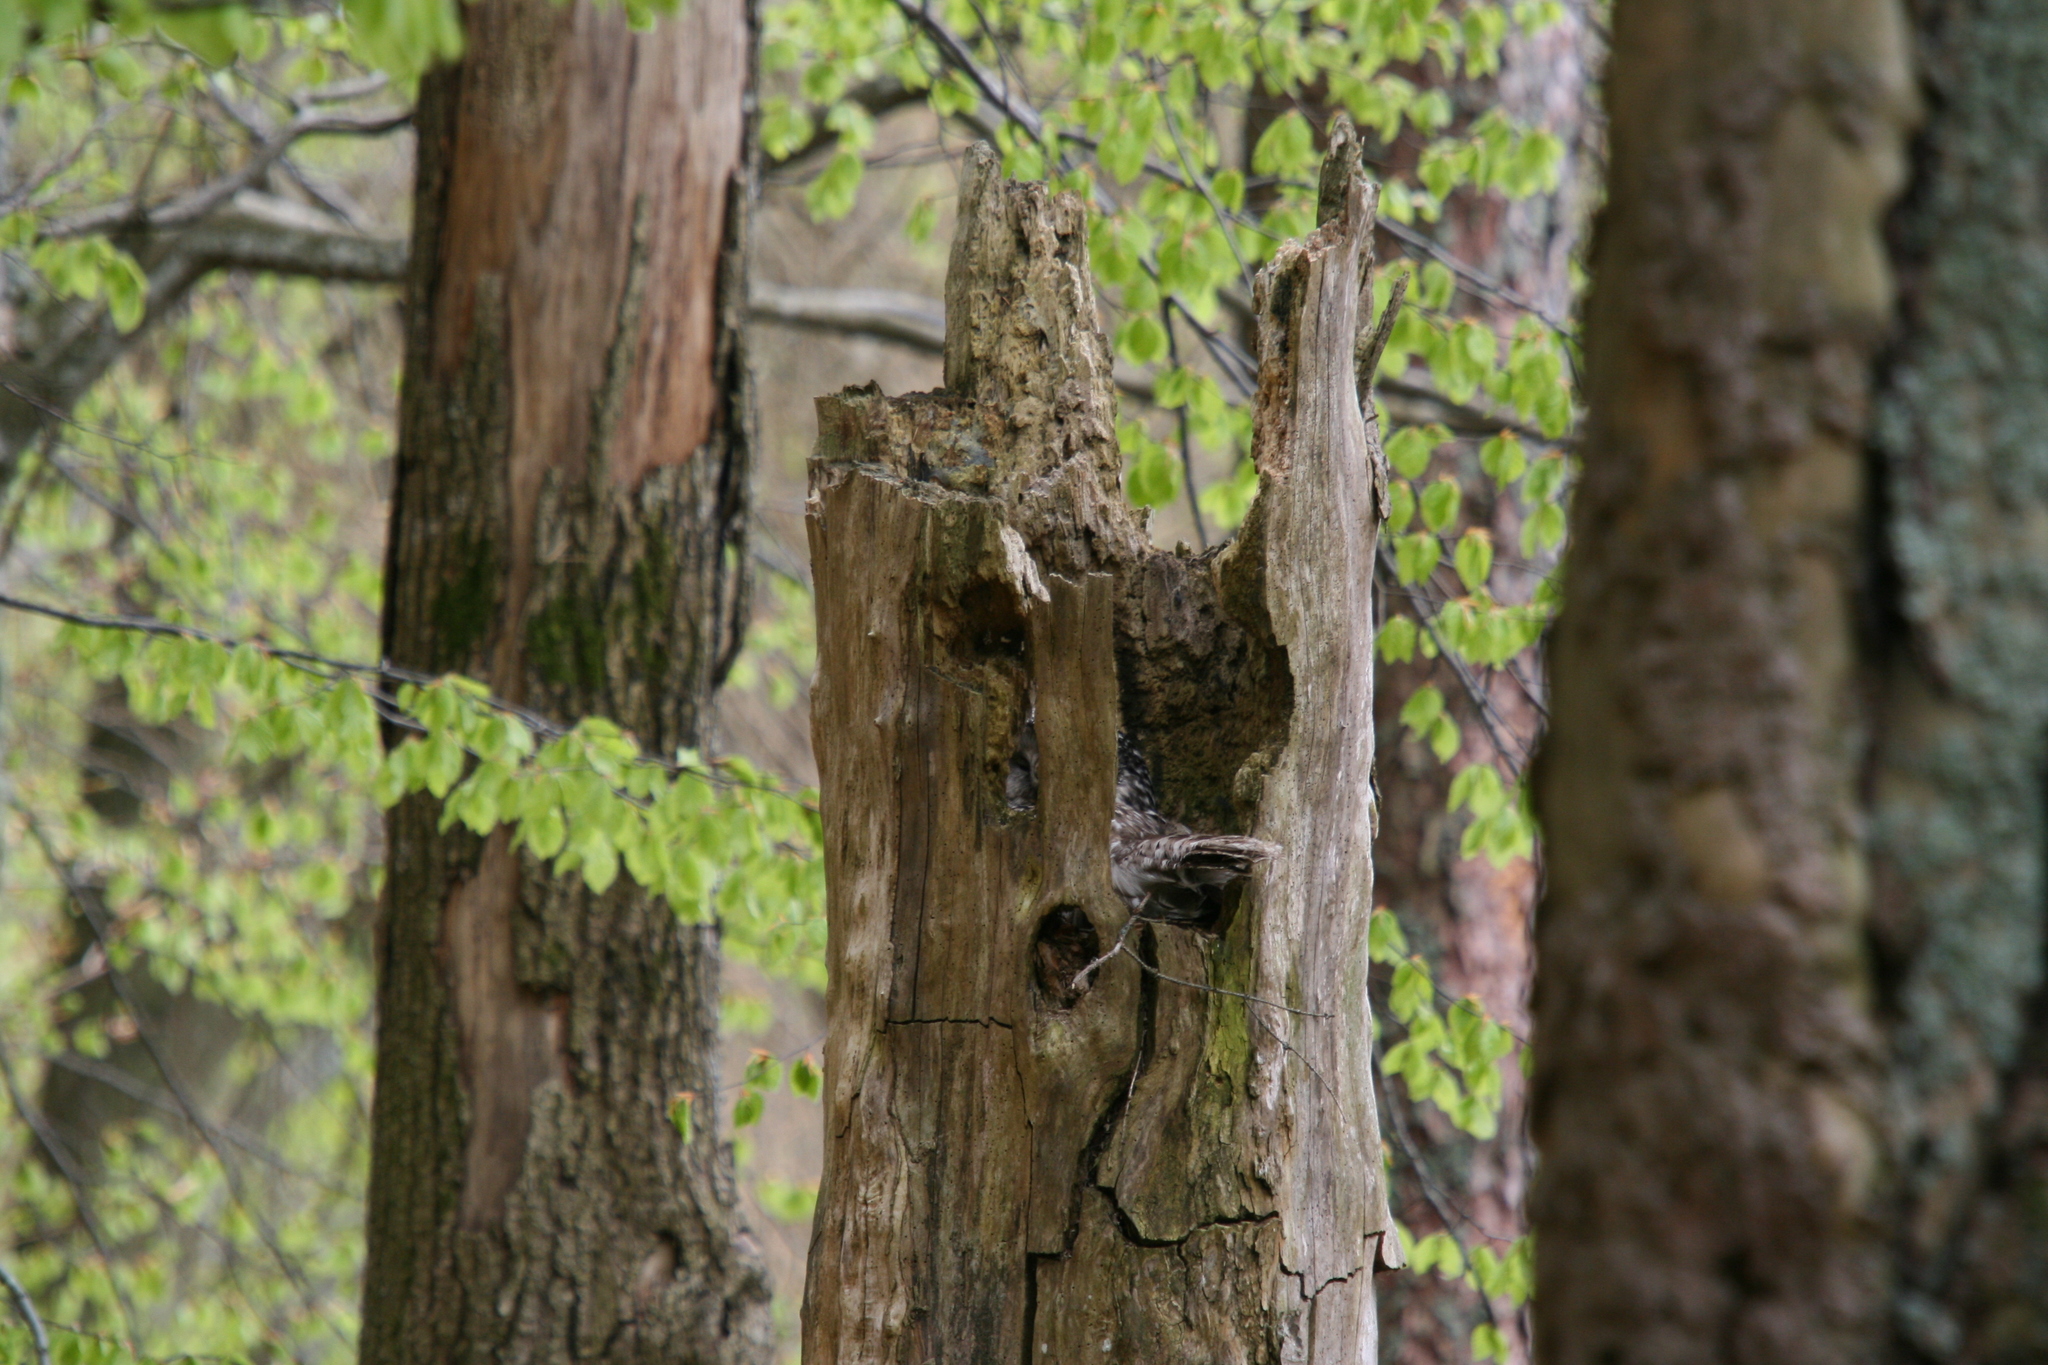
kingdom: Animalia
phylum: Chordata
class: Aves
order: Strigiformes
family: Strigidae
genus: Strix
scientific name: Strix uralensis
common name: Ural owl
